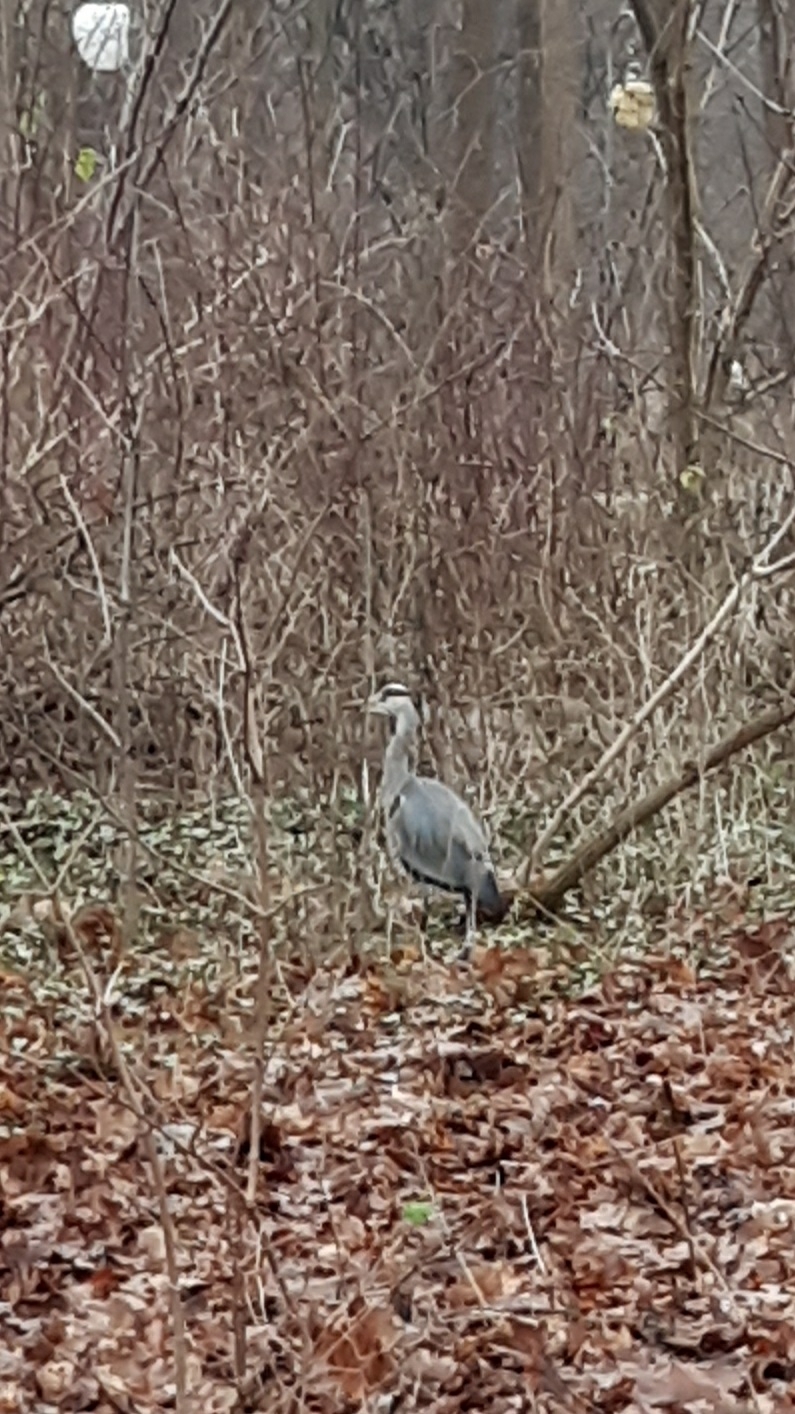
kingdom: Animalia
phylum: Chordata
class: Aves
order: Pelecaniformes
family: Ardeidae
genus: Ardea
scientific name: Ardea cinerea
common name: Grey heron
